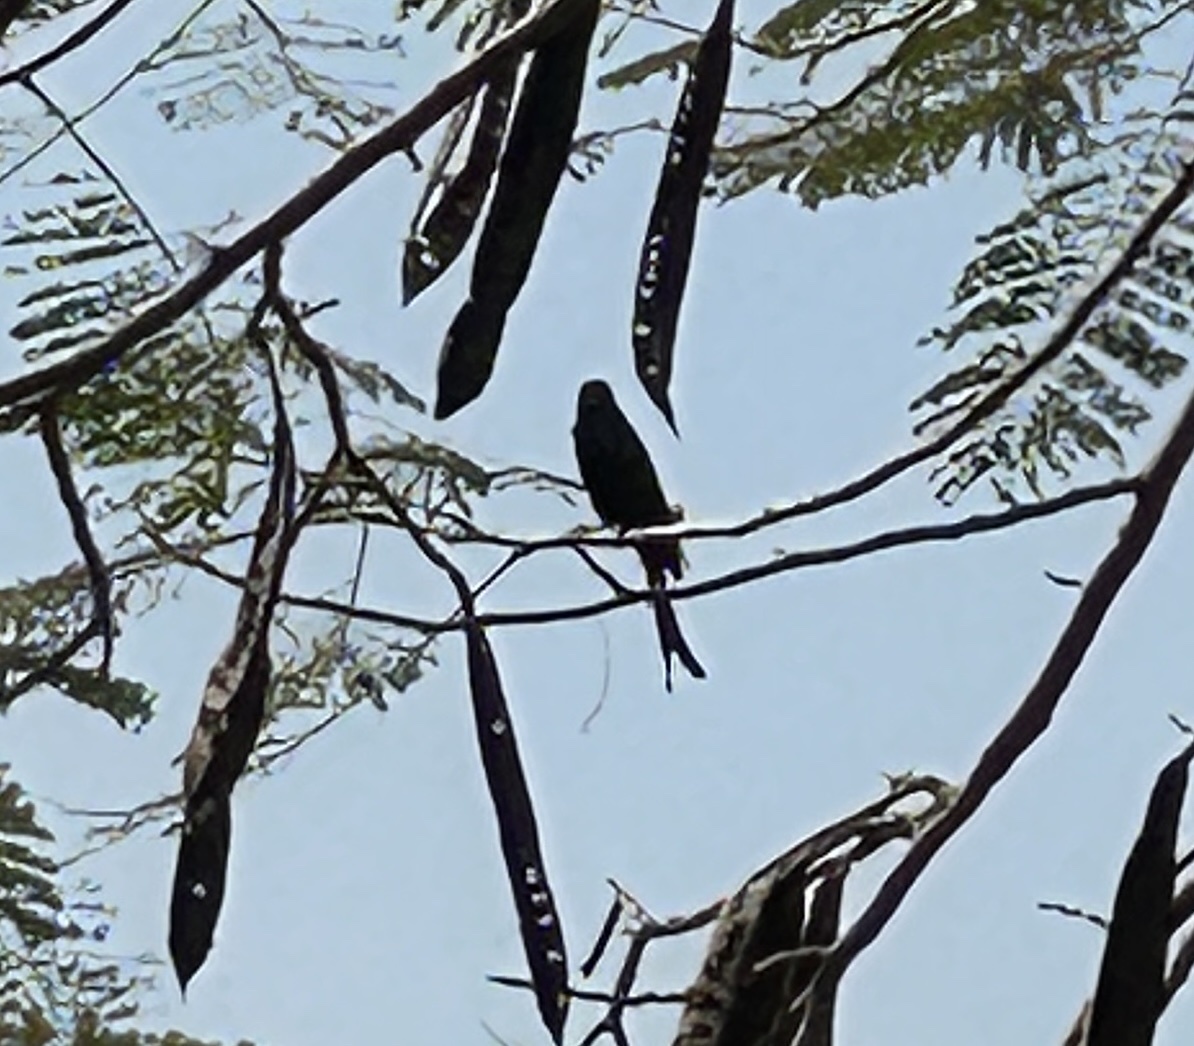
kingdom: Animalia
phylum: Chordata
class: Aves
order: Passeriformes
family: Dicruridae
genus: Dicrurus
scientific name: Dicrurus macrocercus
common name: Black drongo
